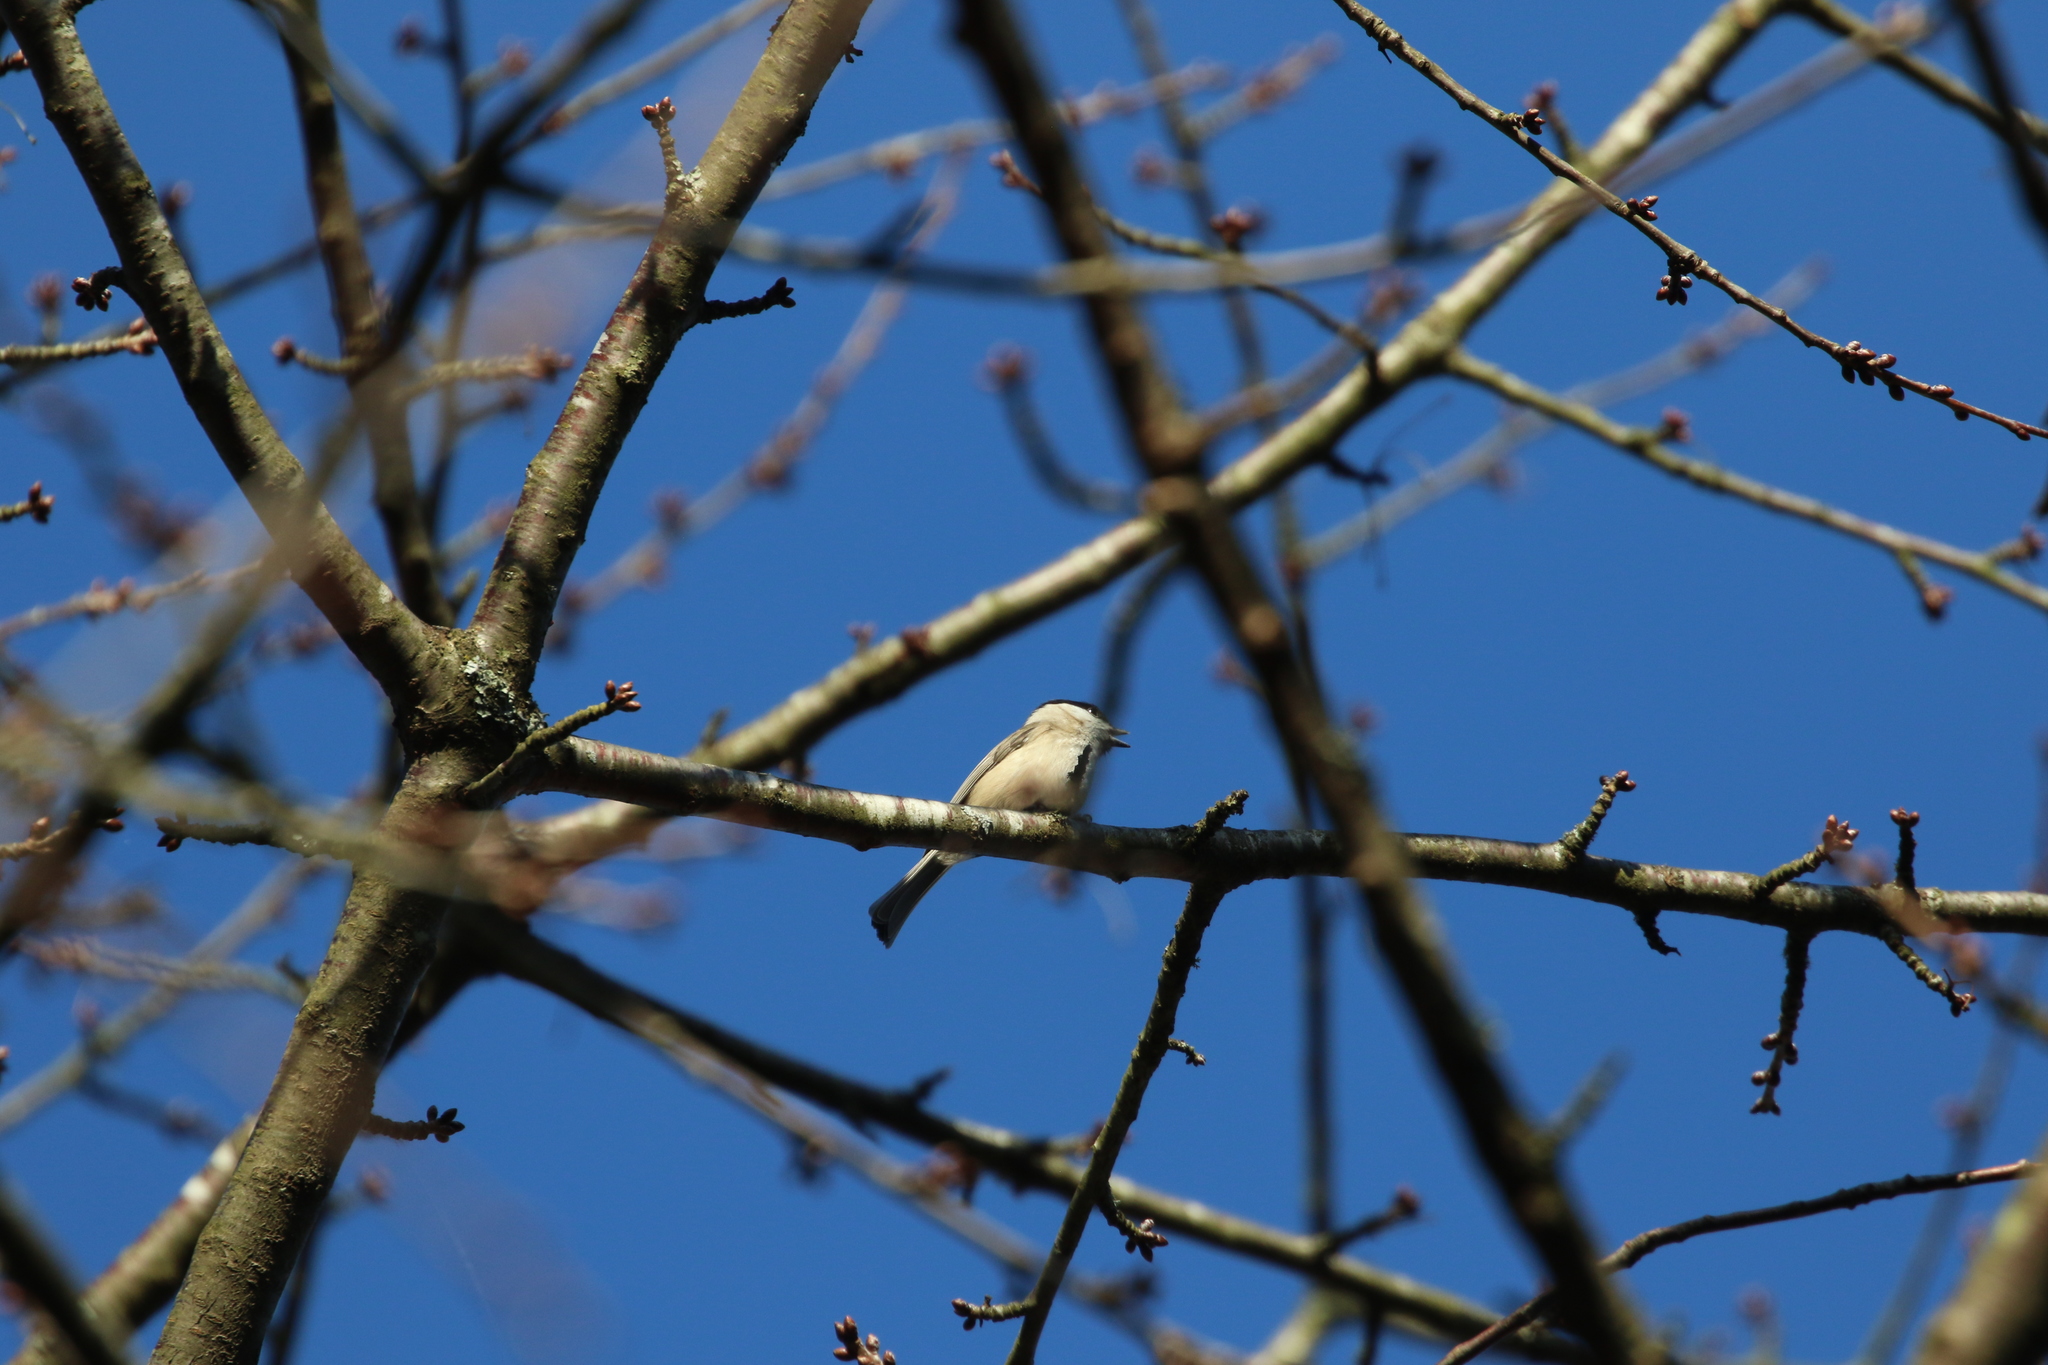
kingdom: Animalia
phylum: Chordata
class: Aves
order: Passeriformes
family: Paridae
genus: Poecile
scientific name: Poecile palustris
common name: Marsh tit
